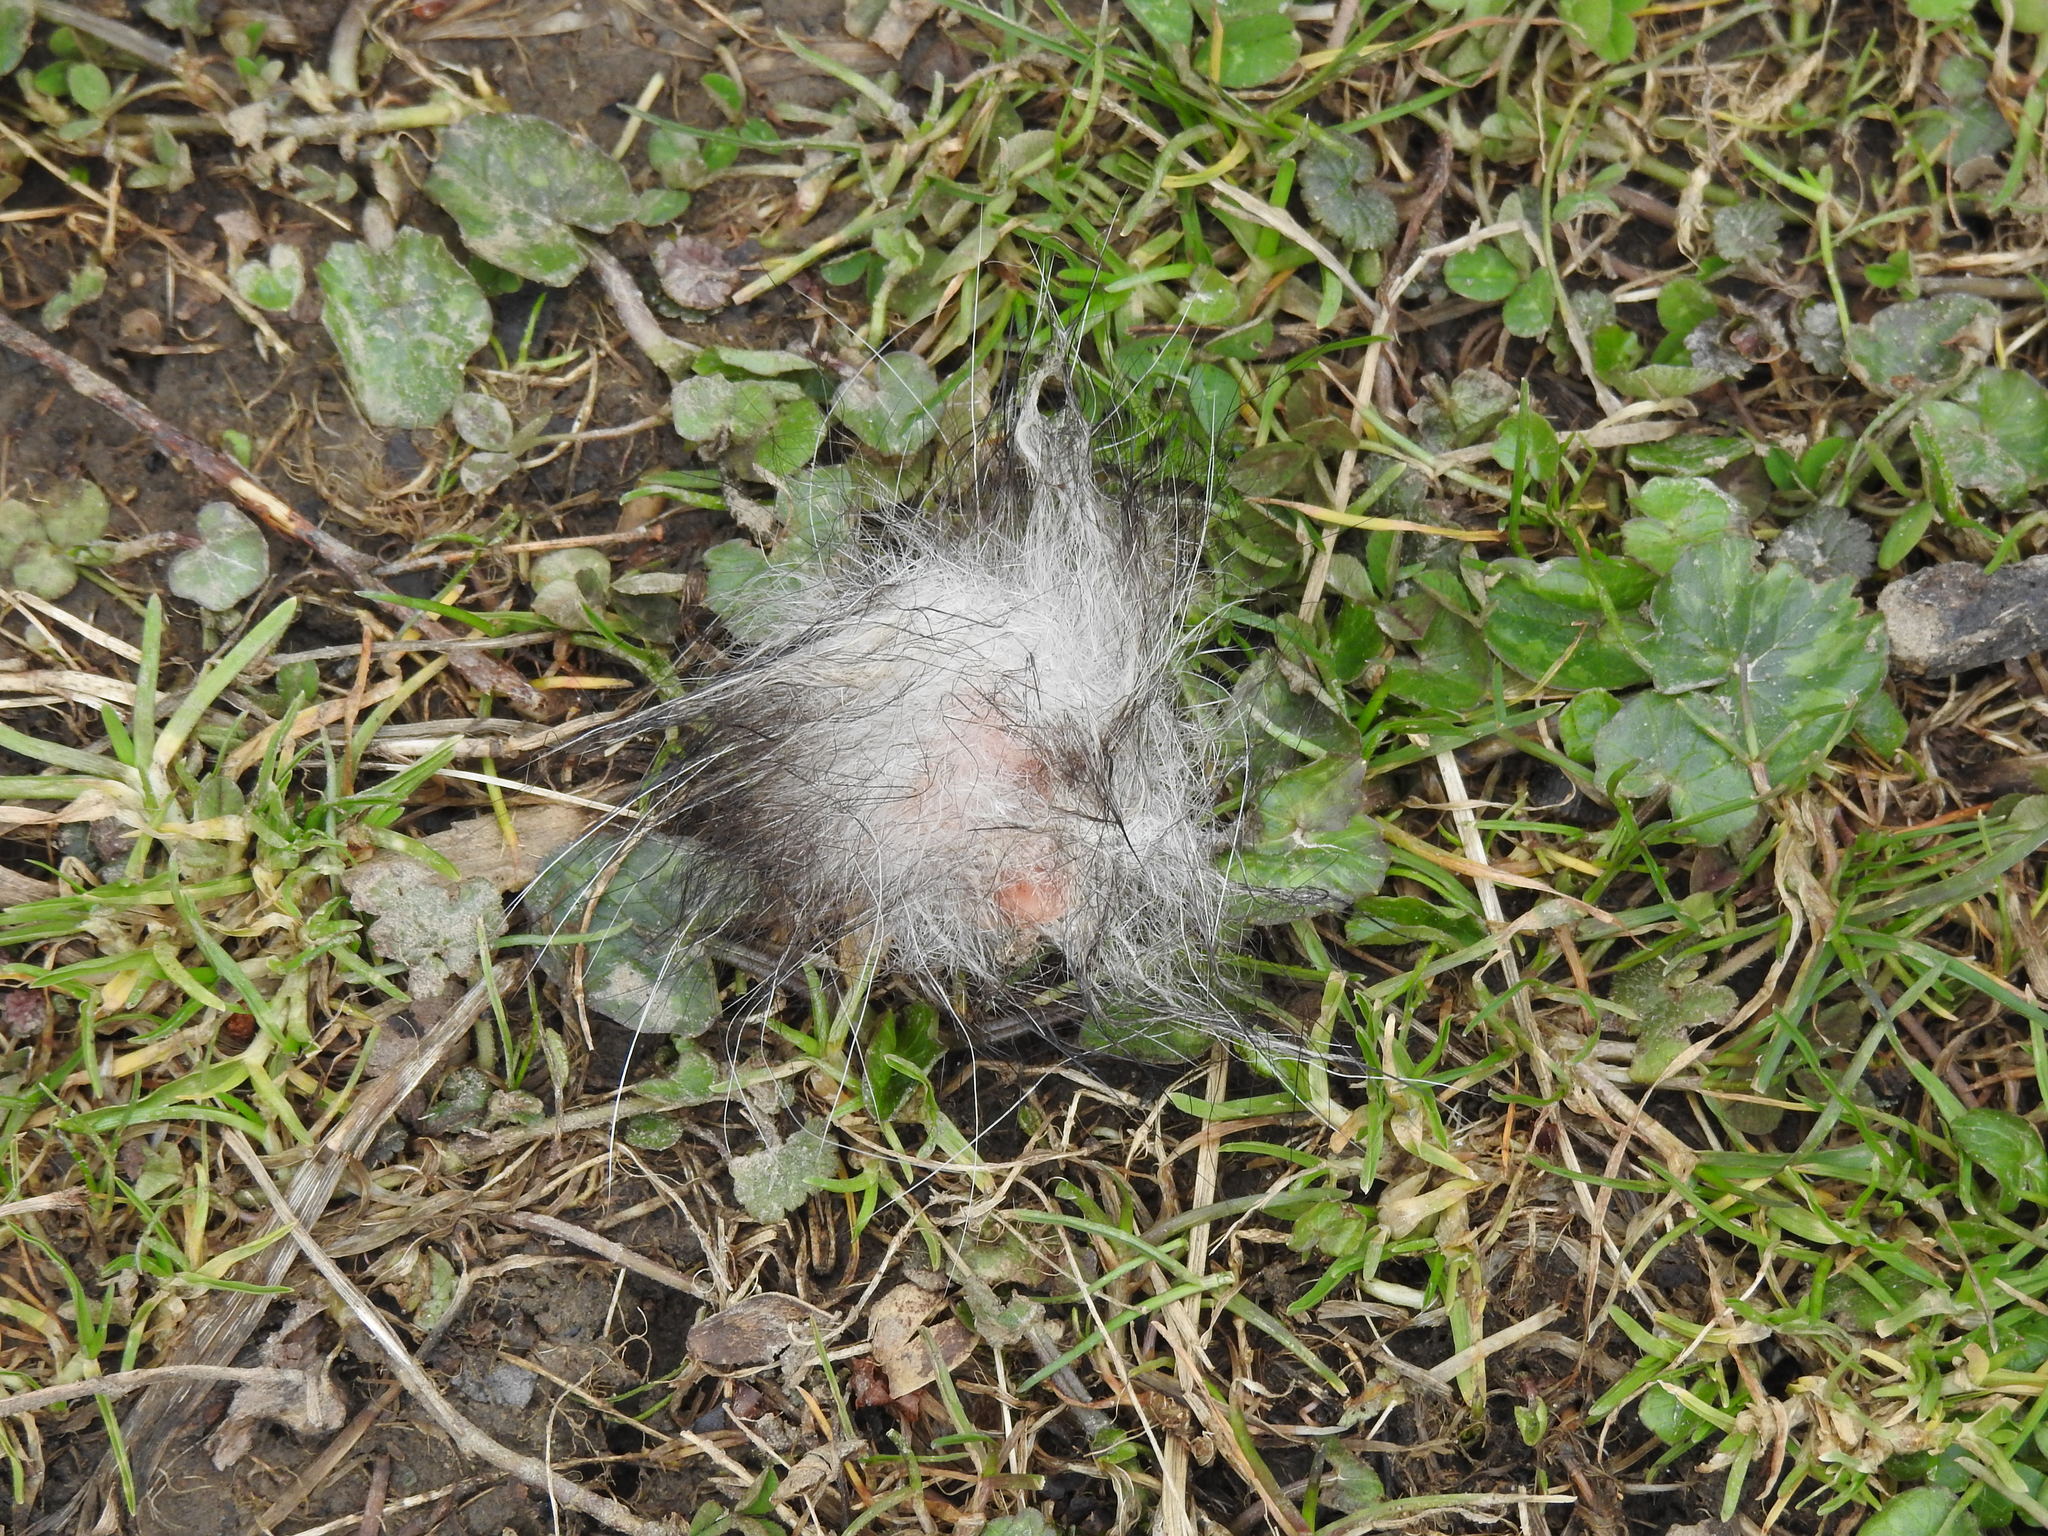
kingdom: Animalia
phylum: Chordata
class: Mammalia
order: Didelphimorphia
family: Didelphidae
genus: Didelphis
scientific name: Didelphis virginiana
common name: Virginia opossum
